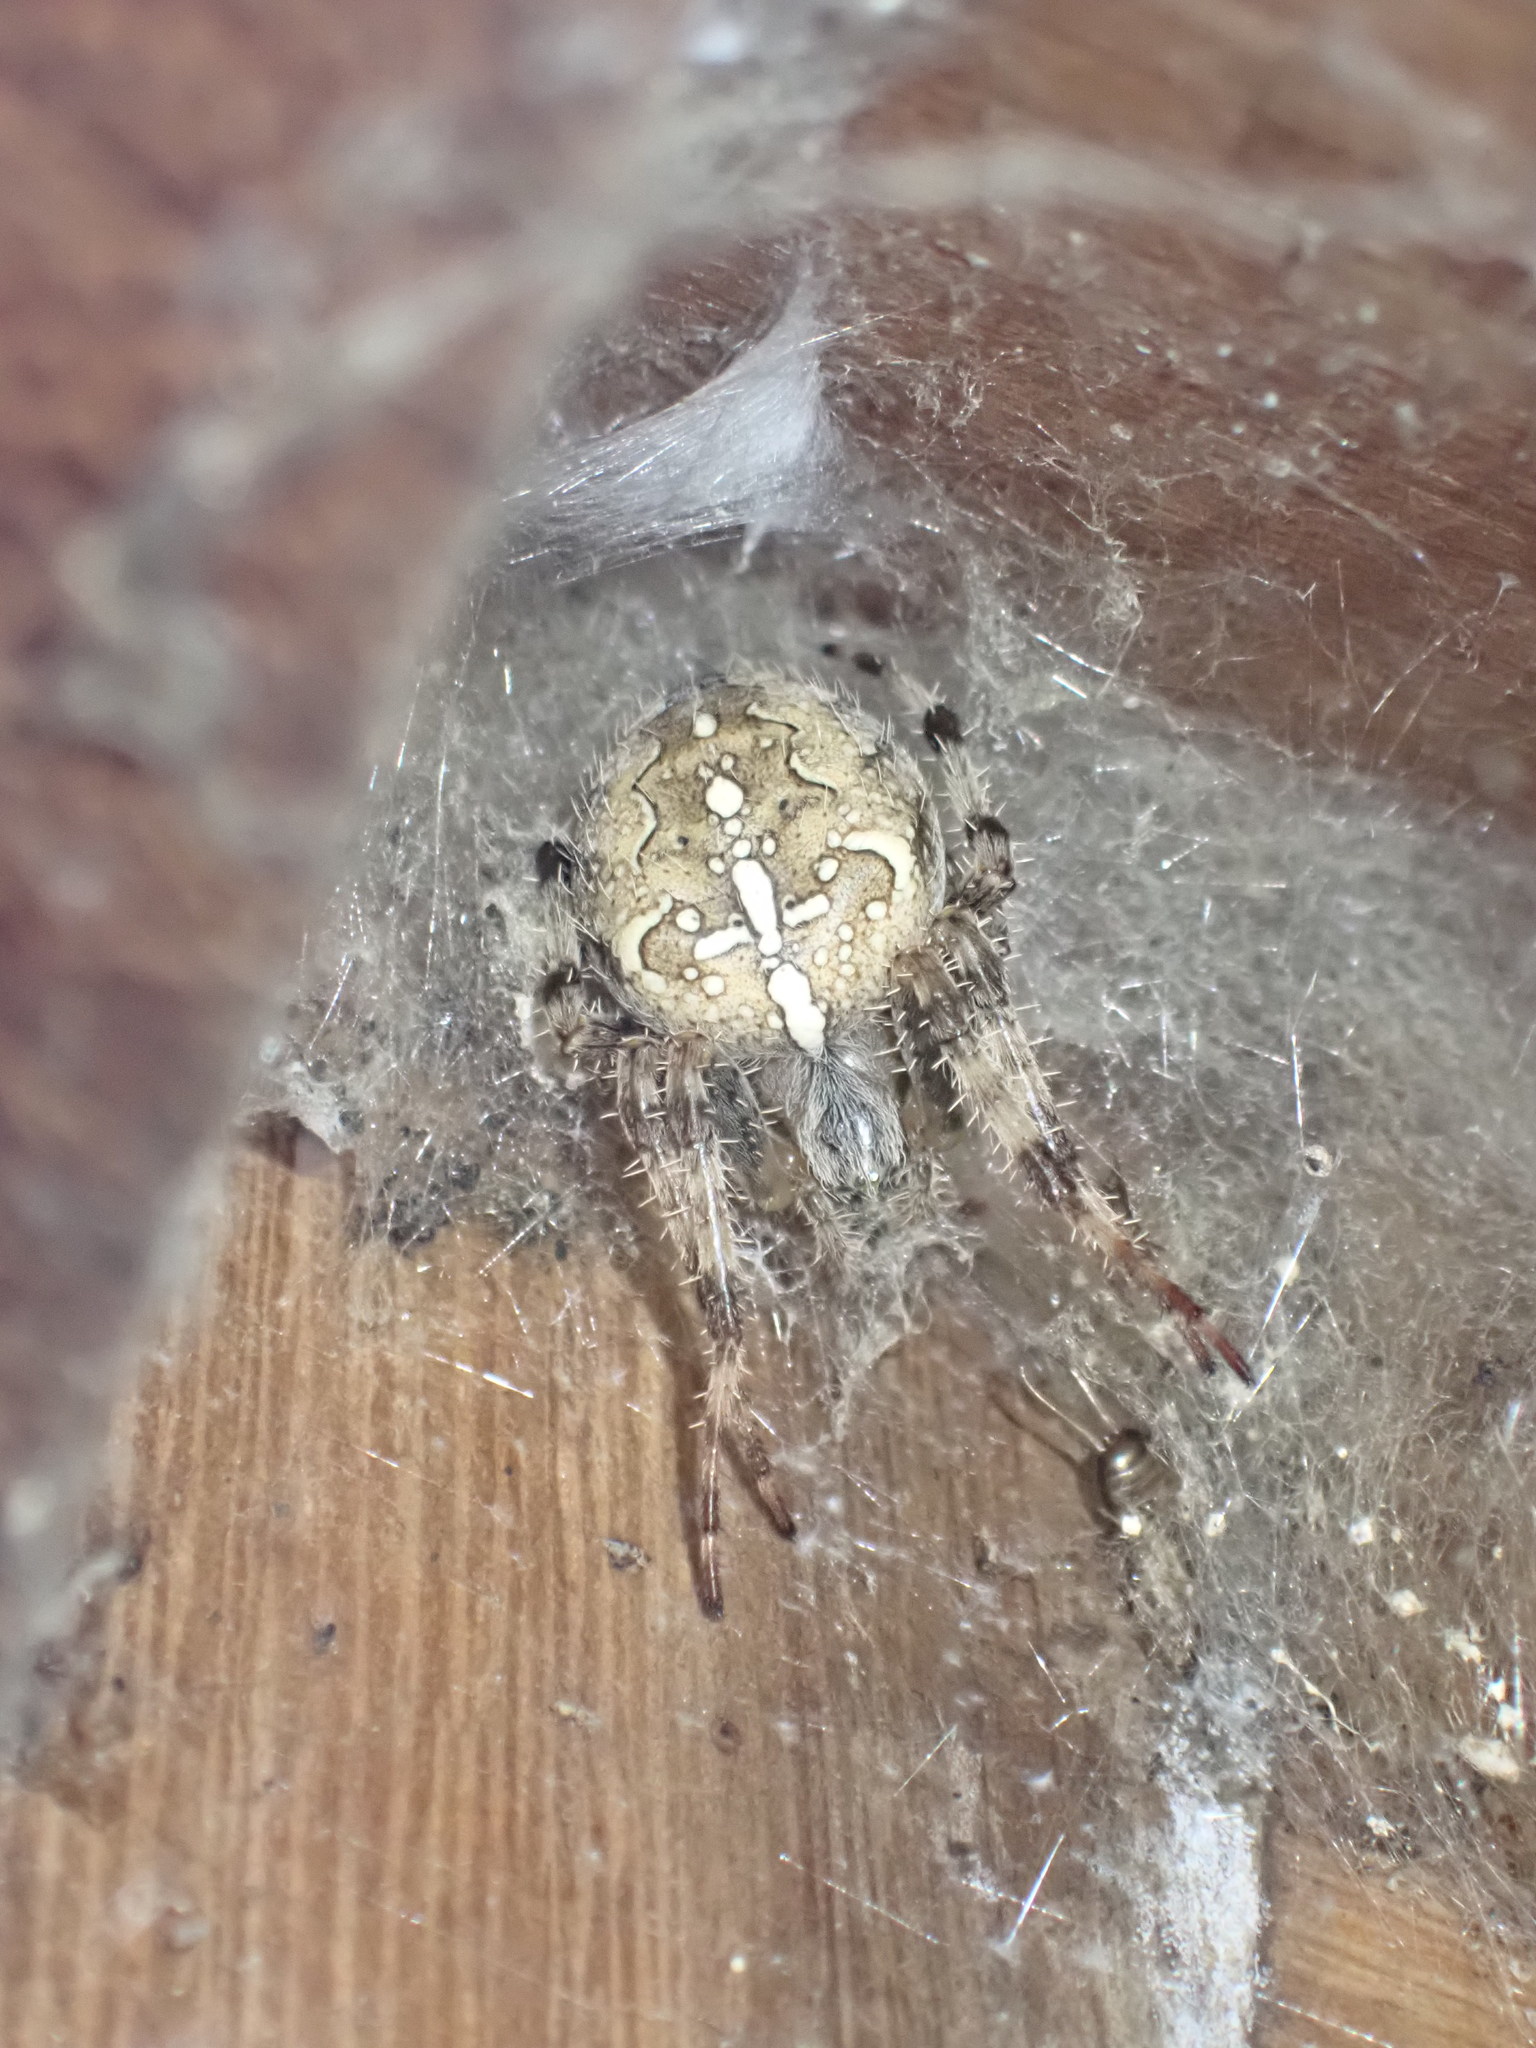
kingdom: Animalia
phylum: Arthropoda
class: Arachnida
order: Araneae
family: Araneidae
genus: Araneus
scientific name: Araneus diadematus
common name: Cross orbweaver
